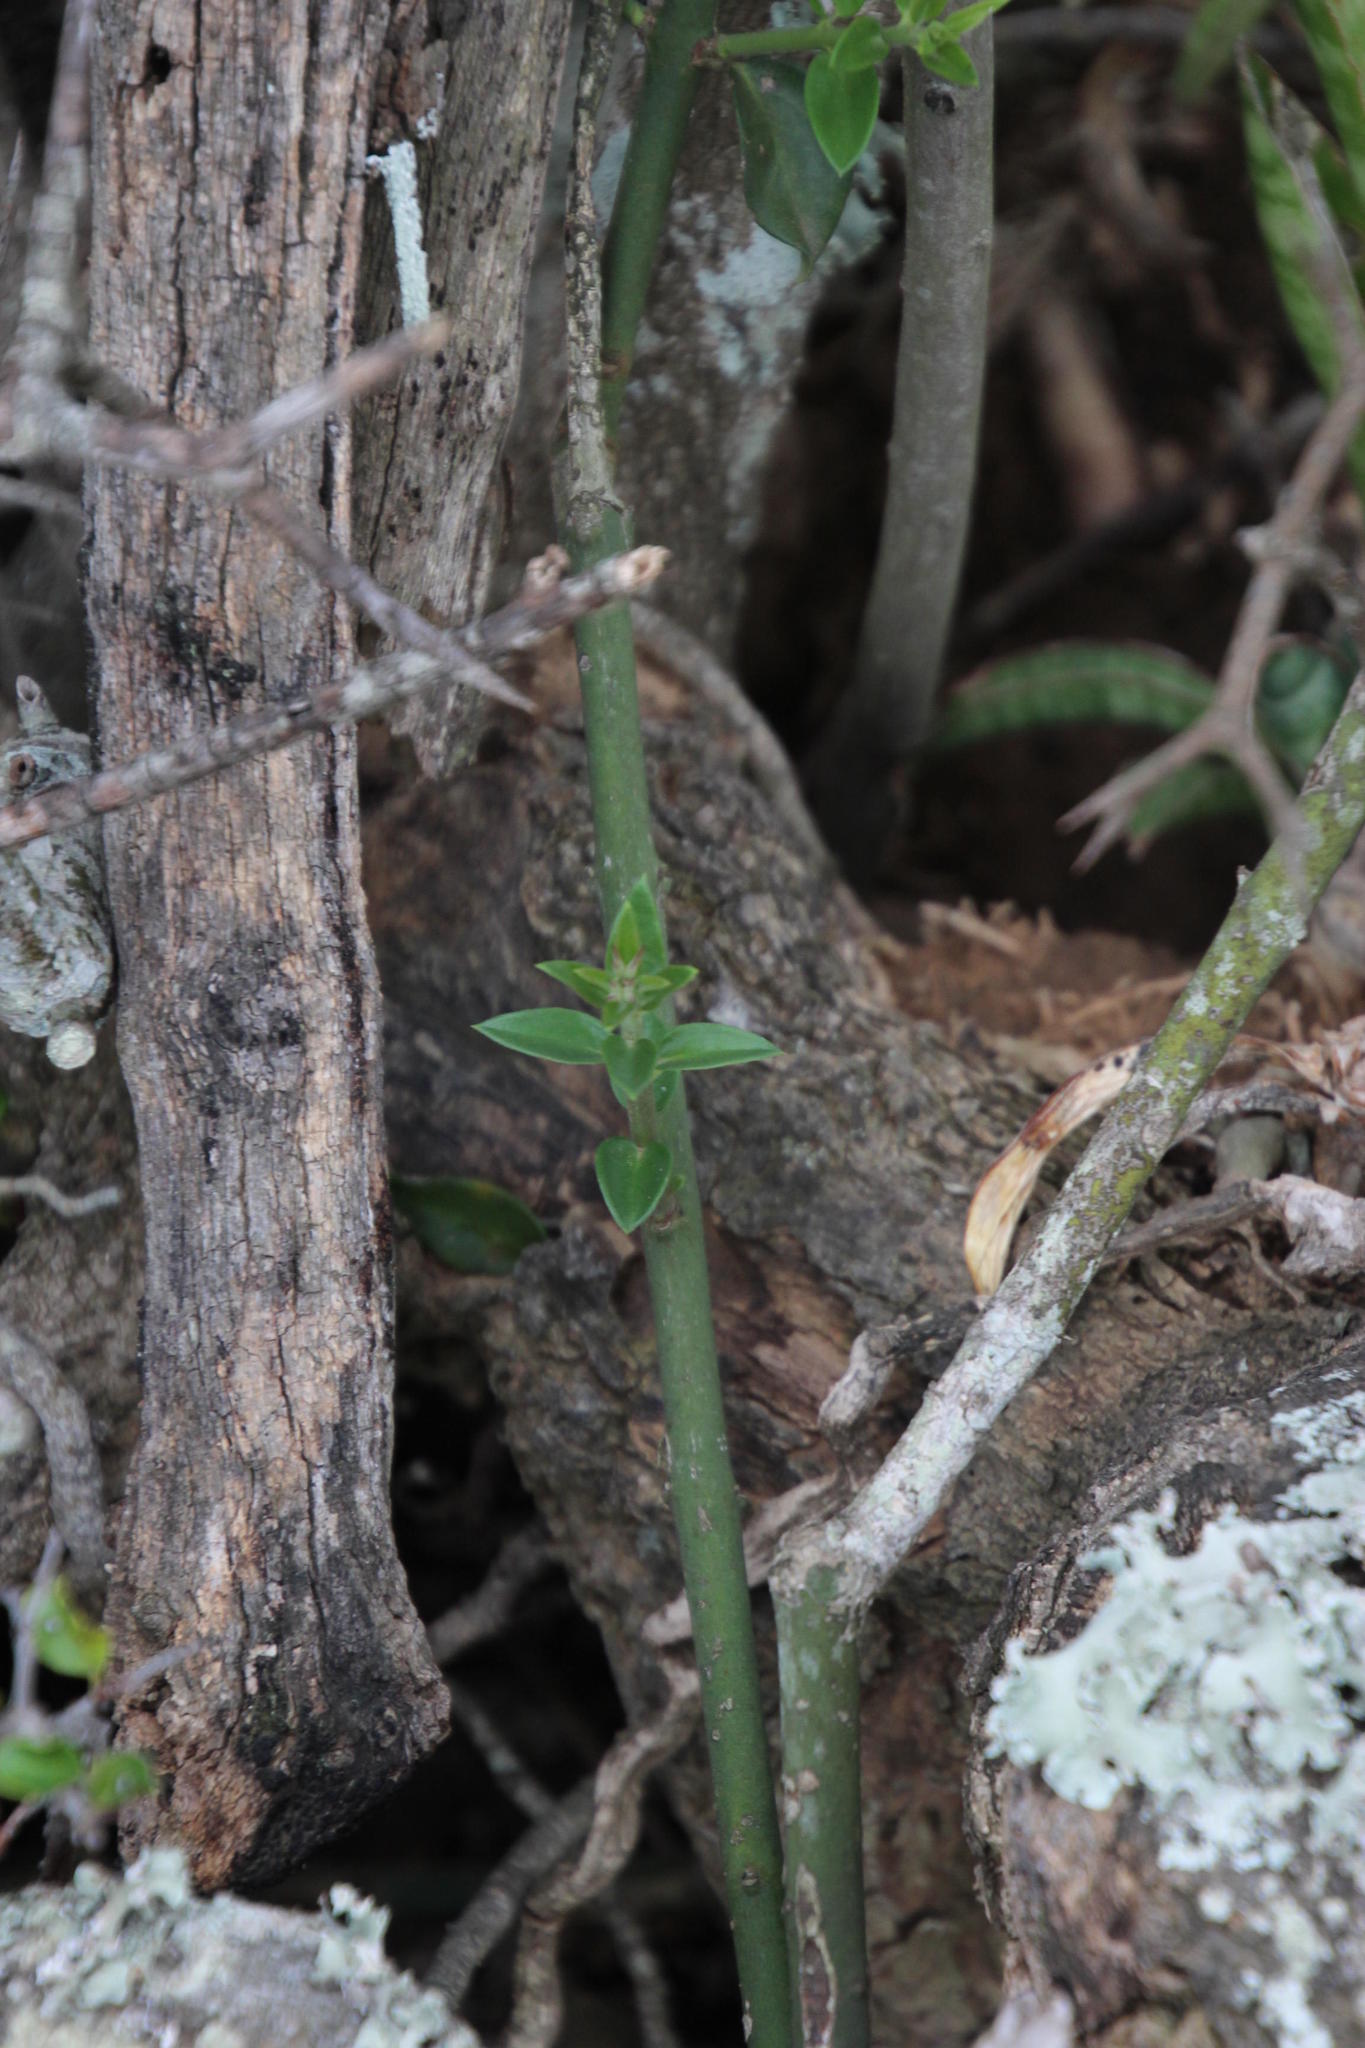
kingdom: Plantae
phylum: Tracheophyta
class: Magnoliopsida
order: Gentianales
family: Apocynaceae
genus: Carissa
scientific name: Carissa haematocarpa
